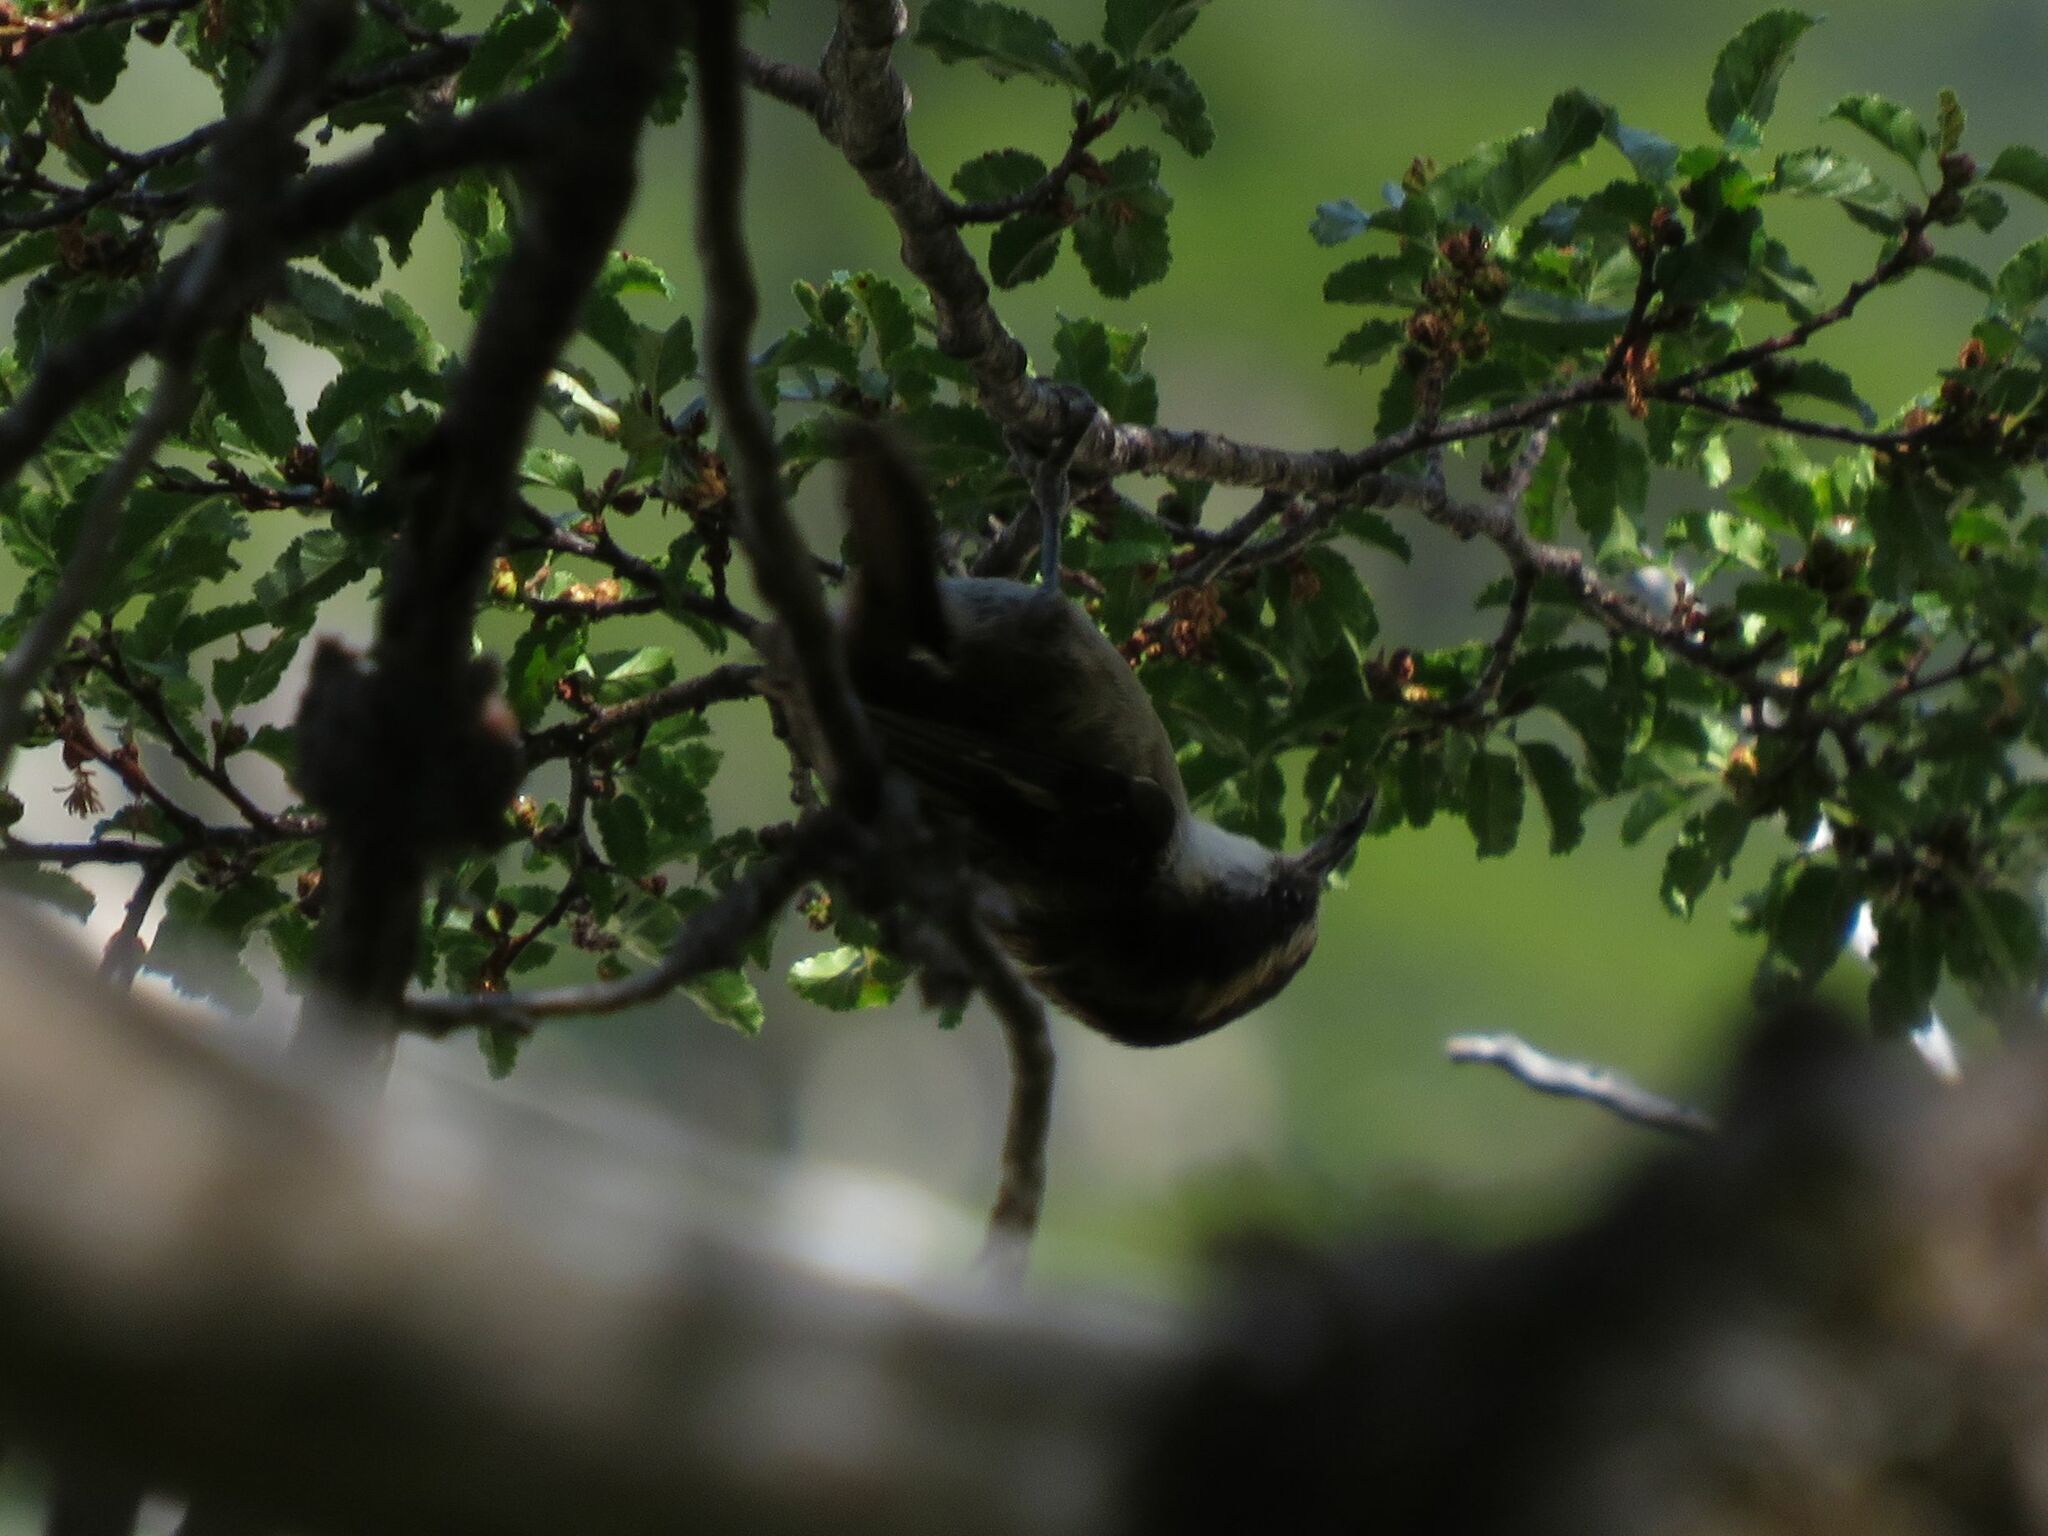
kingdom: Animalia
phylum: Chordata
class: Aves
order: Passeriformes
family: Furnariidae
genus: Aphrastura
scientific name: Aphrastura spinicauda
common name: Thorn-tailed rayadito
